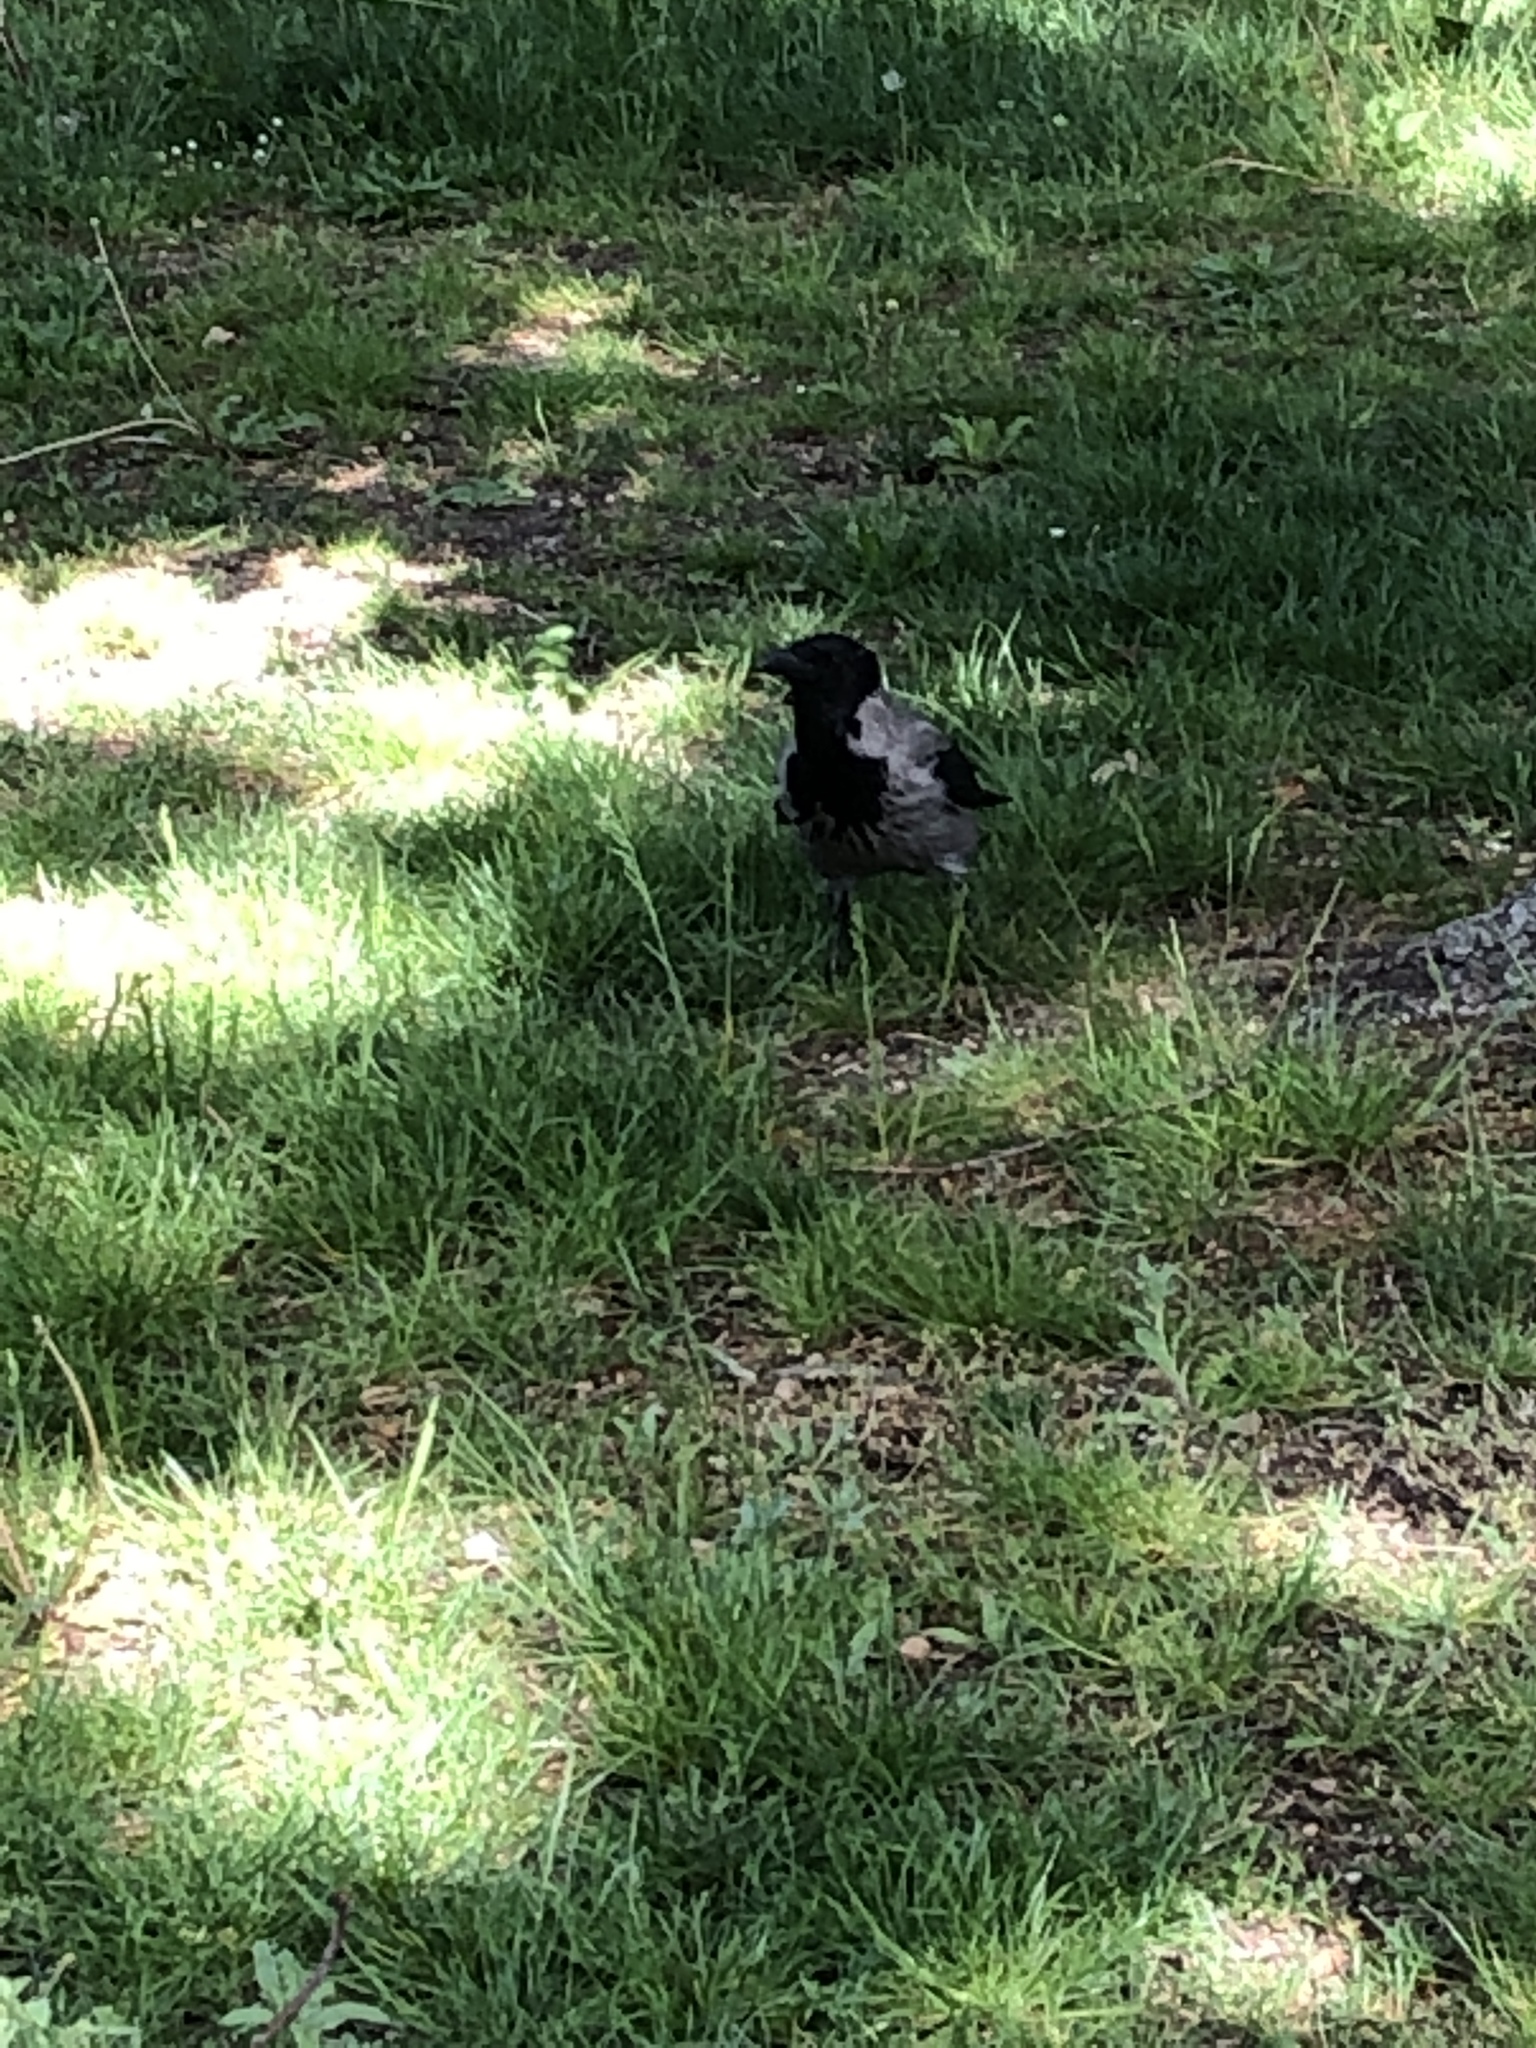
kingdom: Animalia
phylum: Chordata
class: Aves
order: Passeriformes
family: Corvidae
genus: Corvus
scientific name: Corvus cornix
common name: Hooded crow
